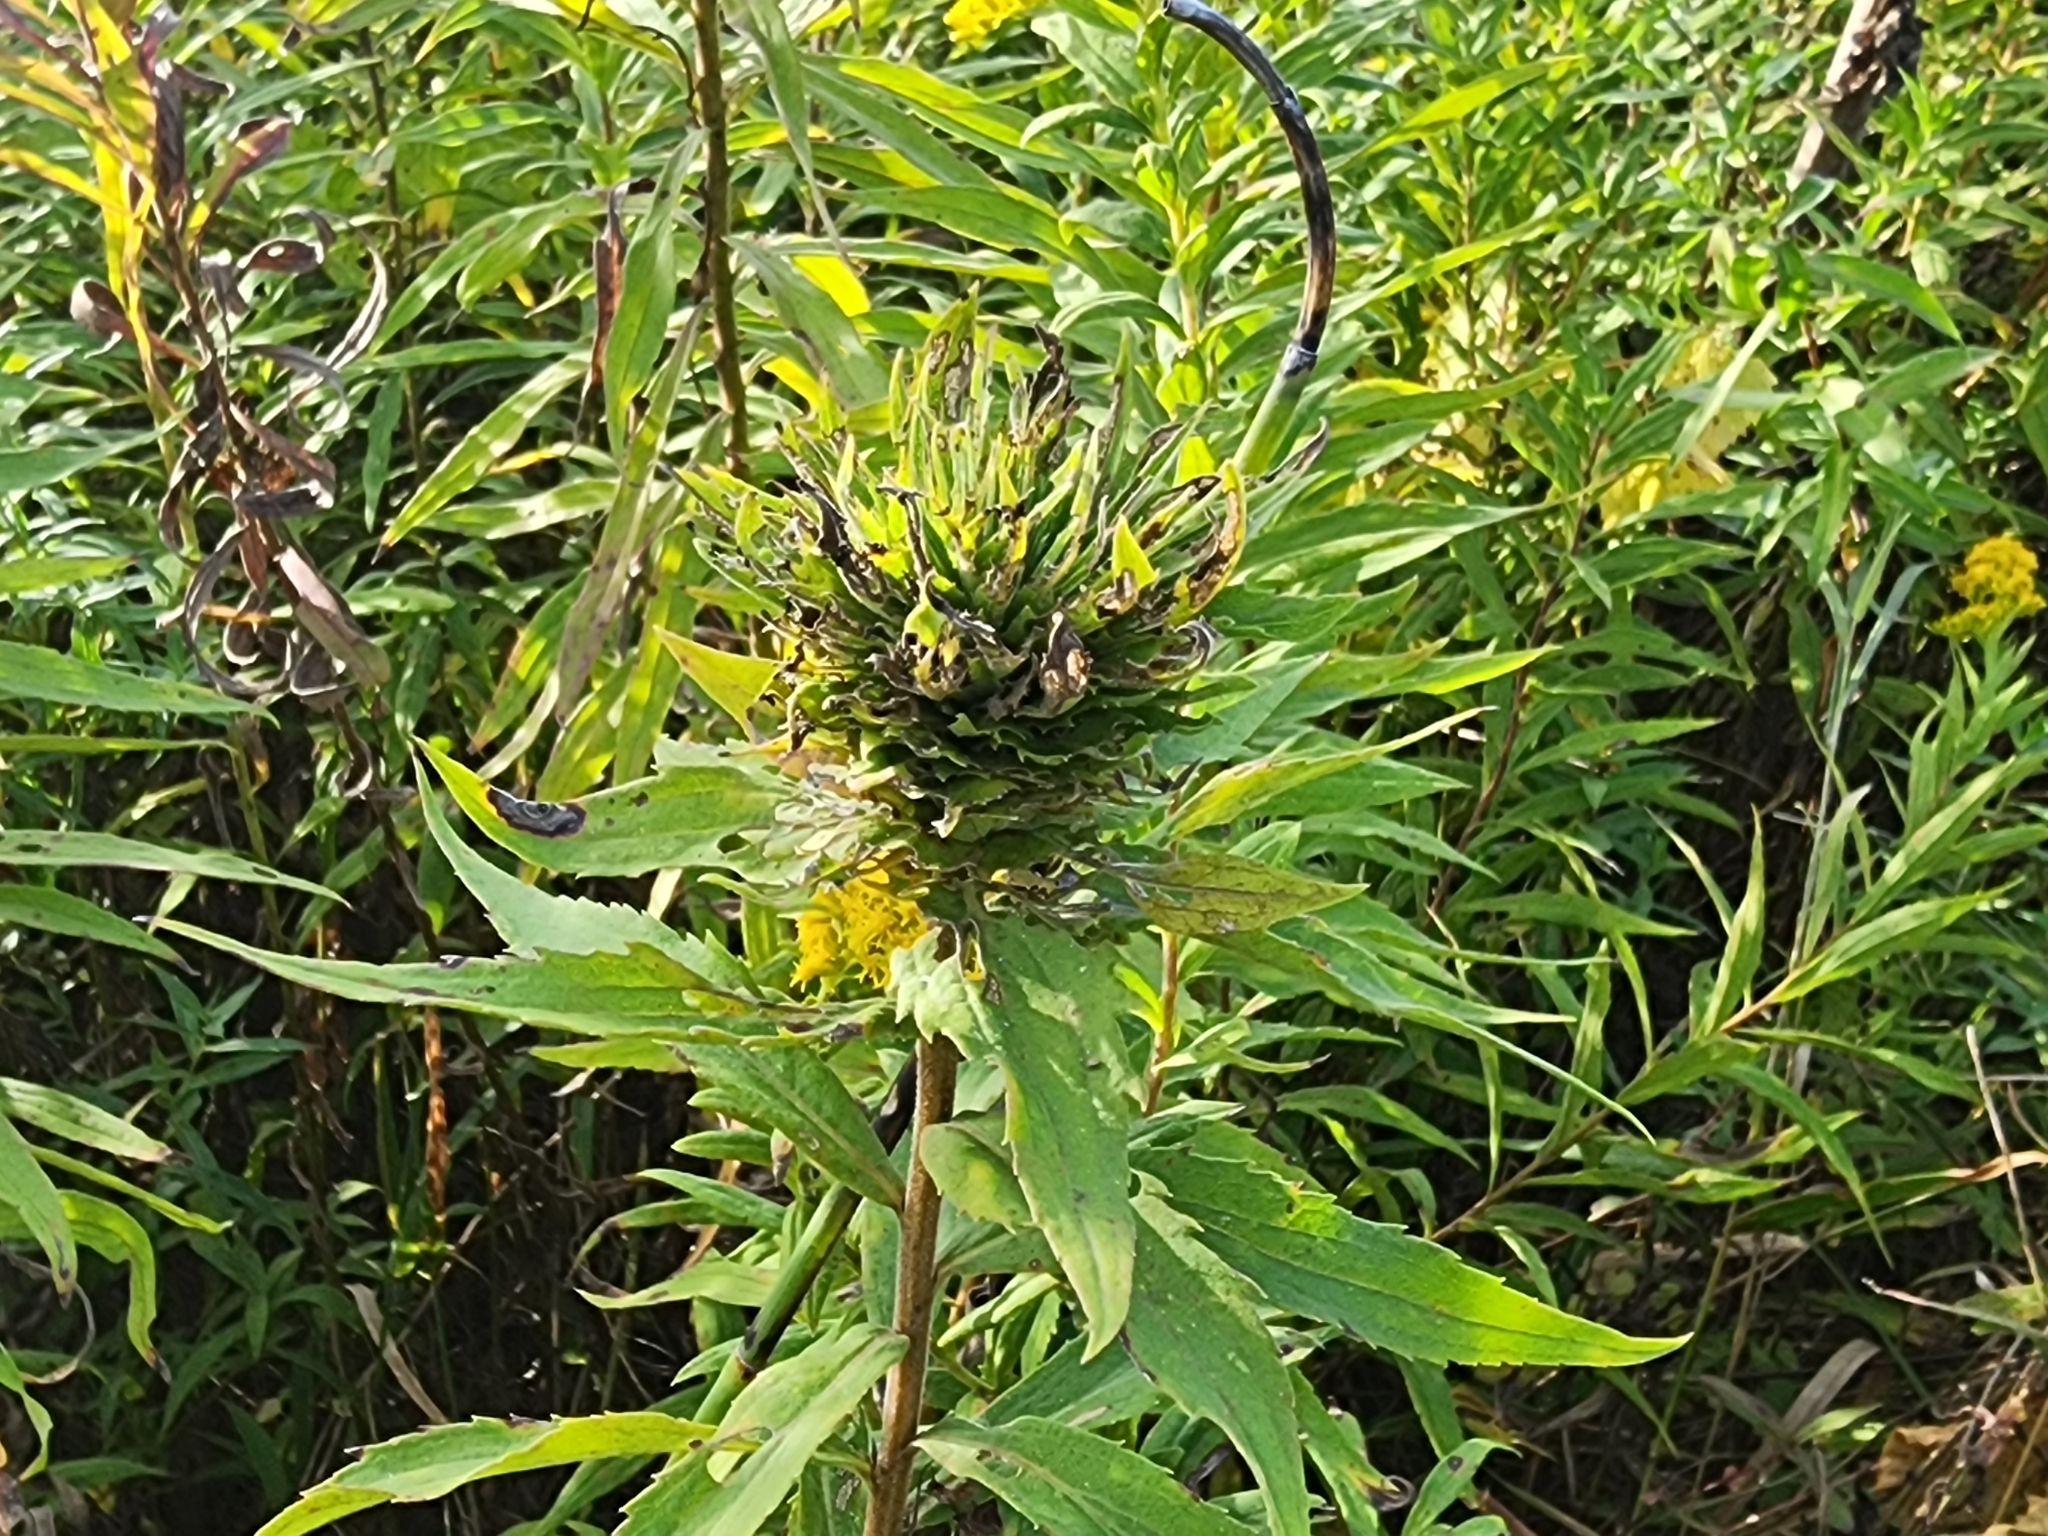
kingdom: Animalia
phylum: Arthropoda
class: Insecta
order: Diptera
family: Cecidomyiidae
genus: Rhopalomyia
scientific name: Rhopalomyia solidaginis
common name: Goldenrod bunch gall midge
